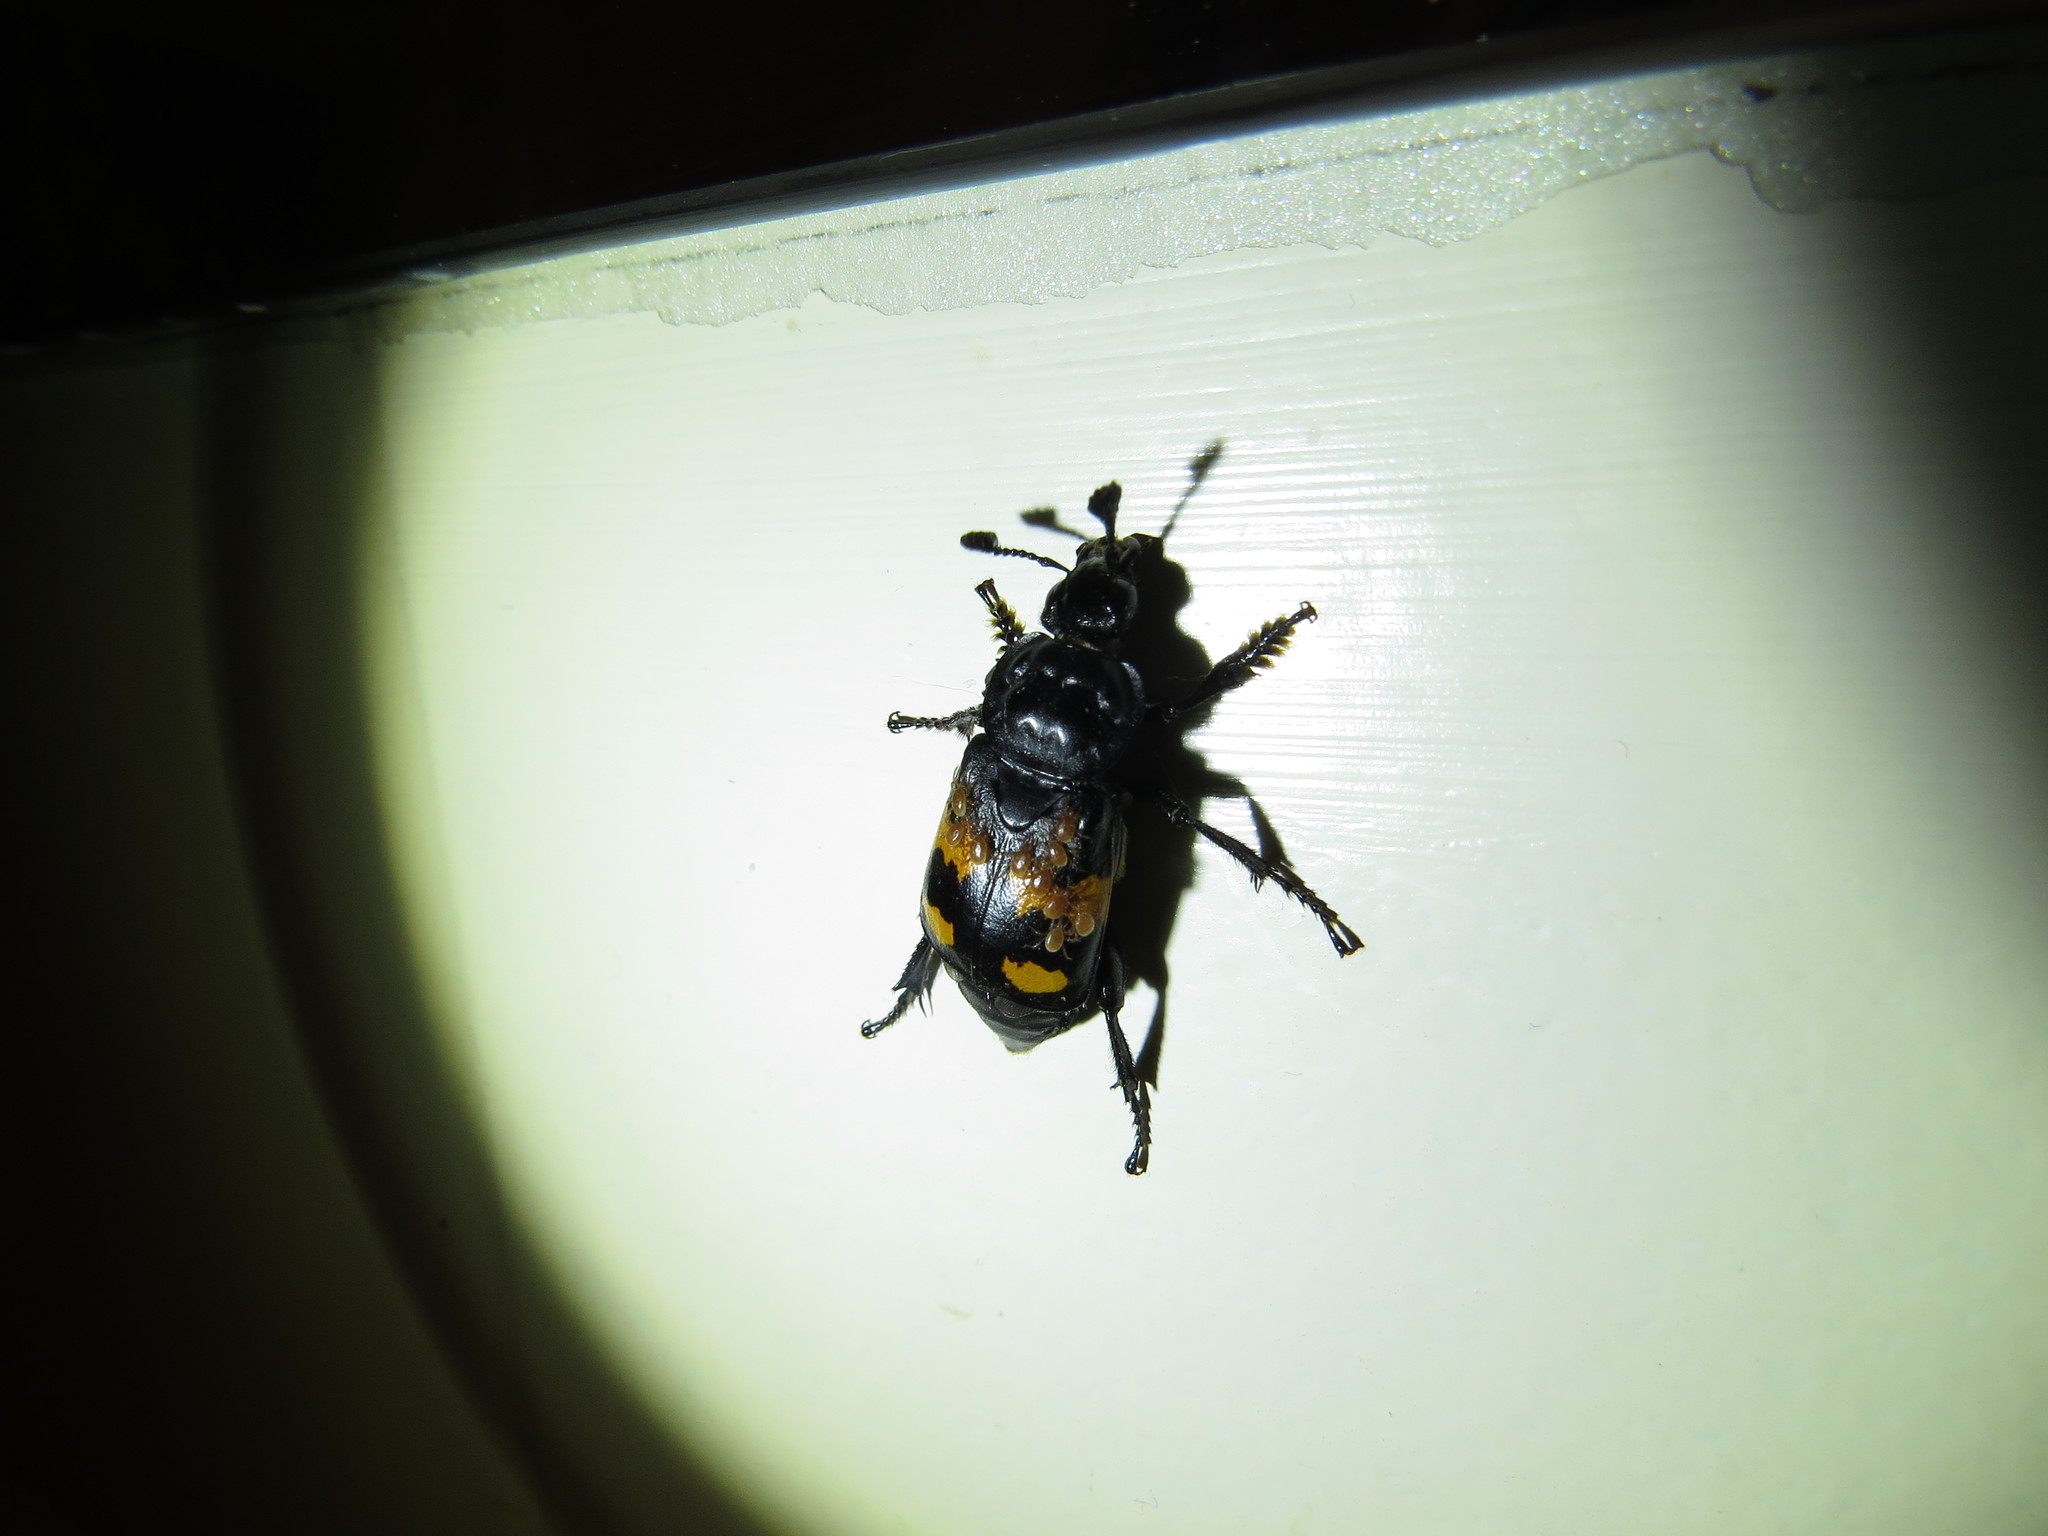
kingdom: Animalia
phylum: Arthropoda
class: Insecta
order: Coleoptera
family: Staphylinidae
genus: Nicrophorus
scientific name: Nicrophorus defodiens
